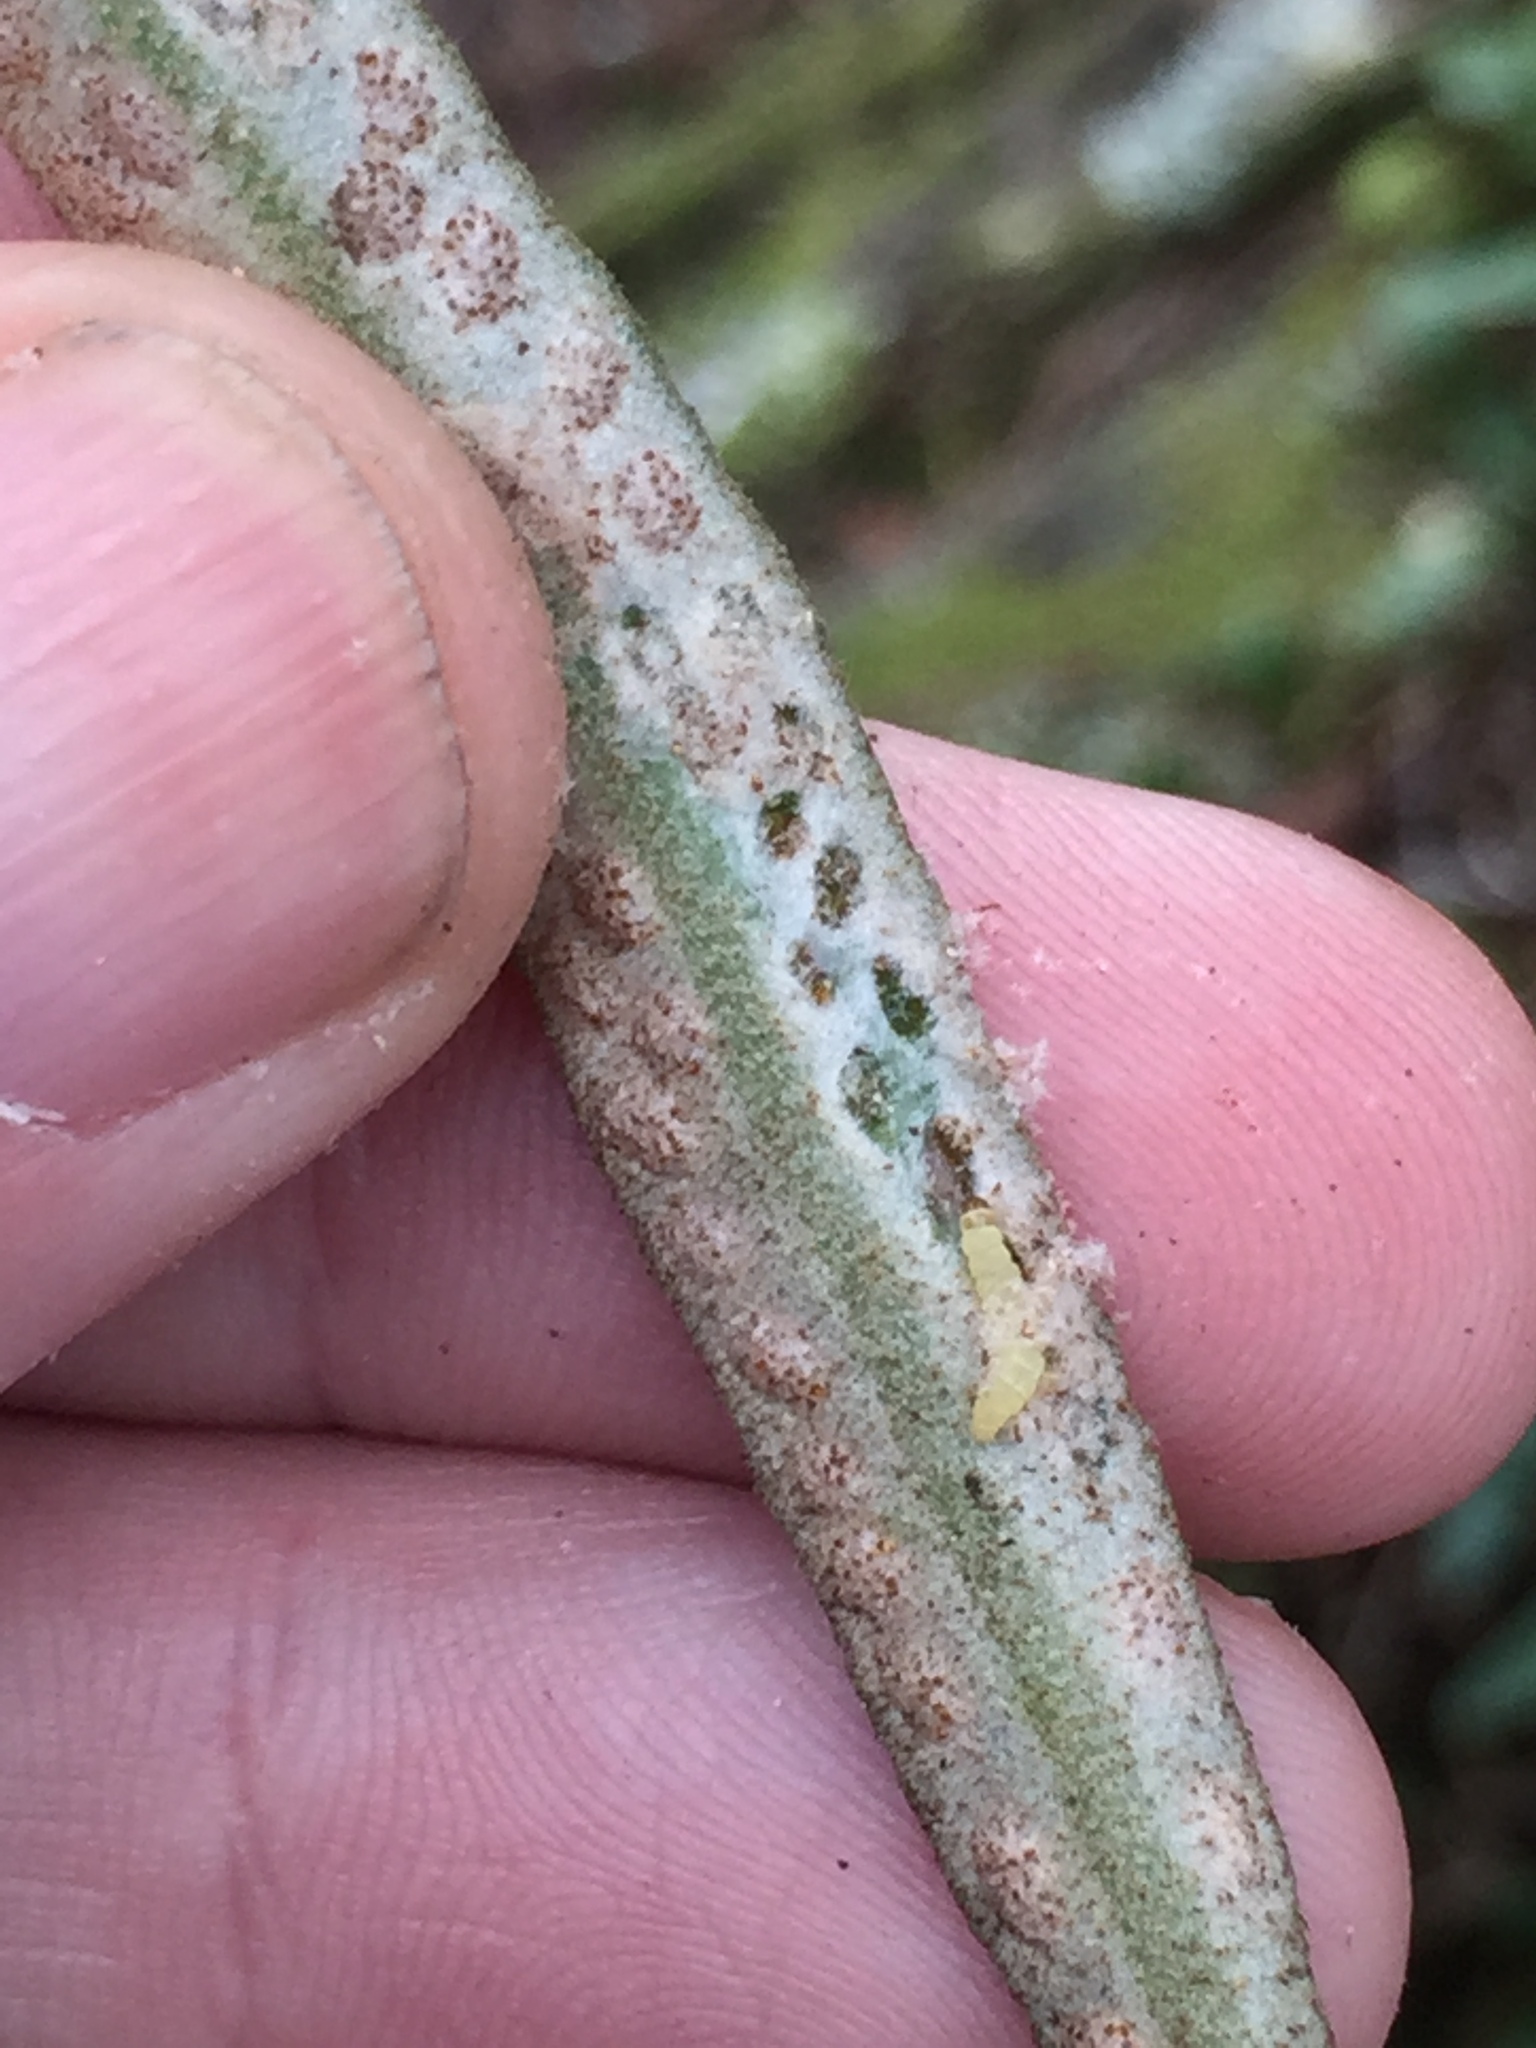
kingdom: Animalia
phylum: Arthropoda
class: Insecta
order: Lepidoptera
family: Stathmopodidae
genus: Calicotis
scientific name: Calicotis crucifera
